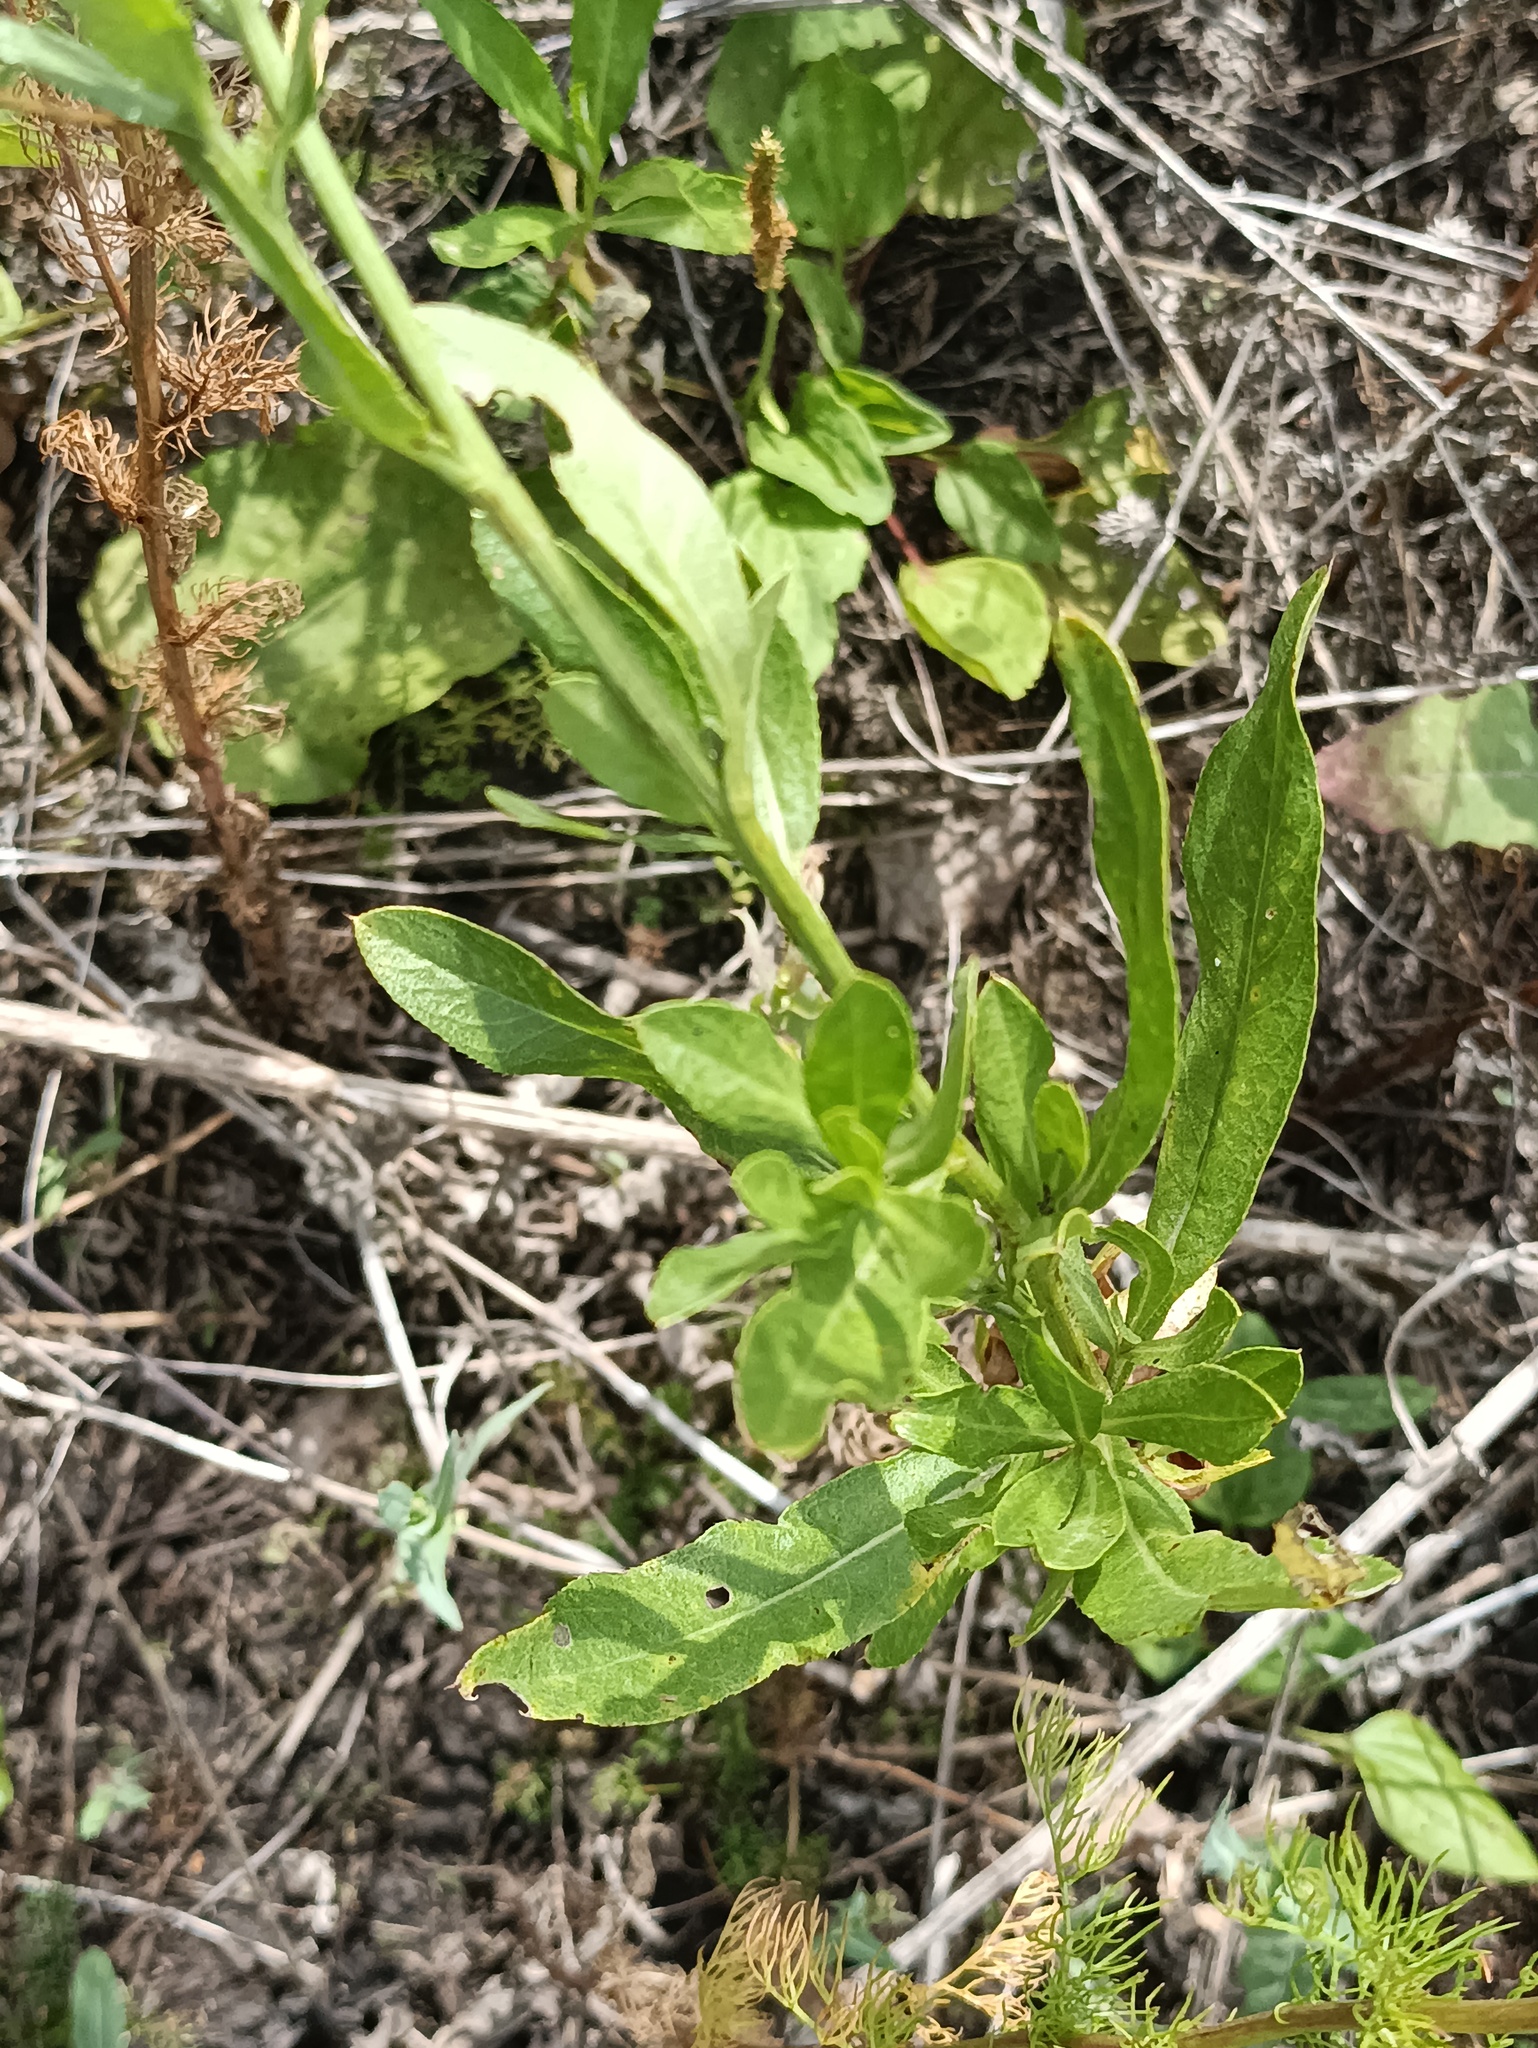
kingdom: Plantae
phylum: Tracheophyta
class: Magnoliopsida
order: Asterales
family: Asteraceae
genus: Cirsium
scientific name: Cirsium arvense
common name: Creeping thistle
